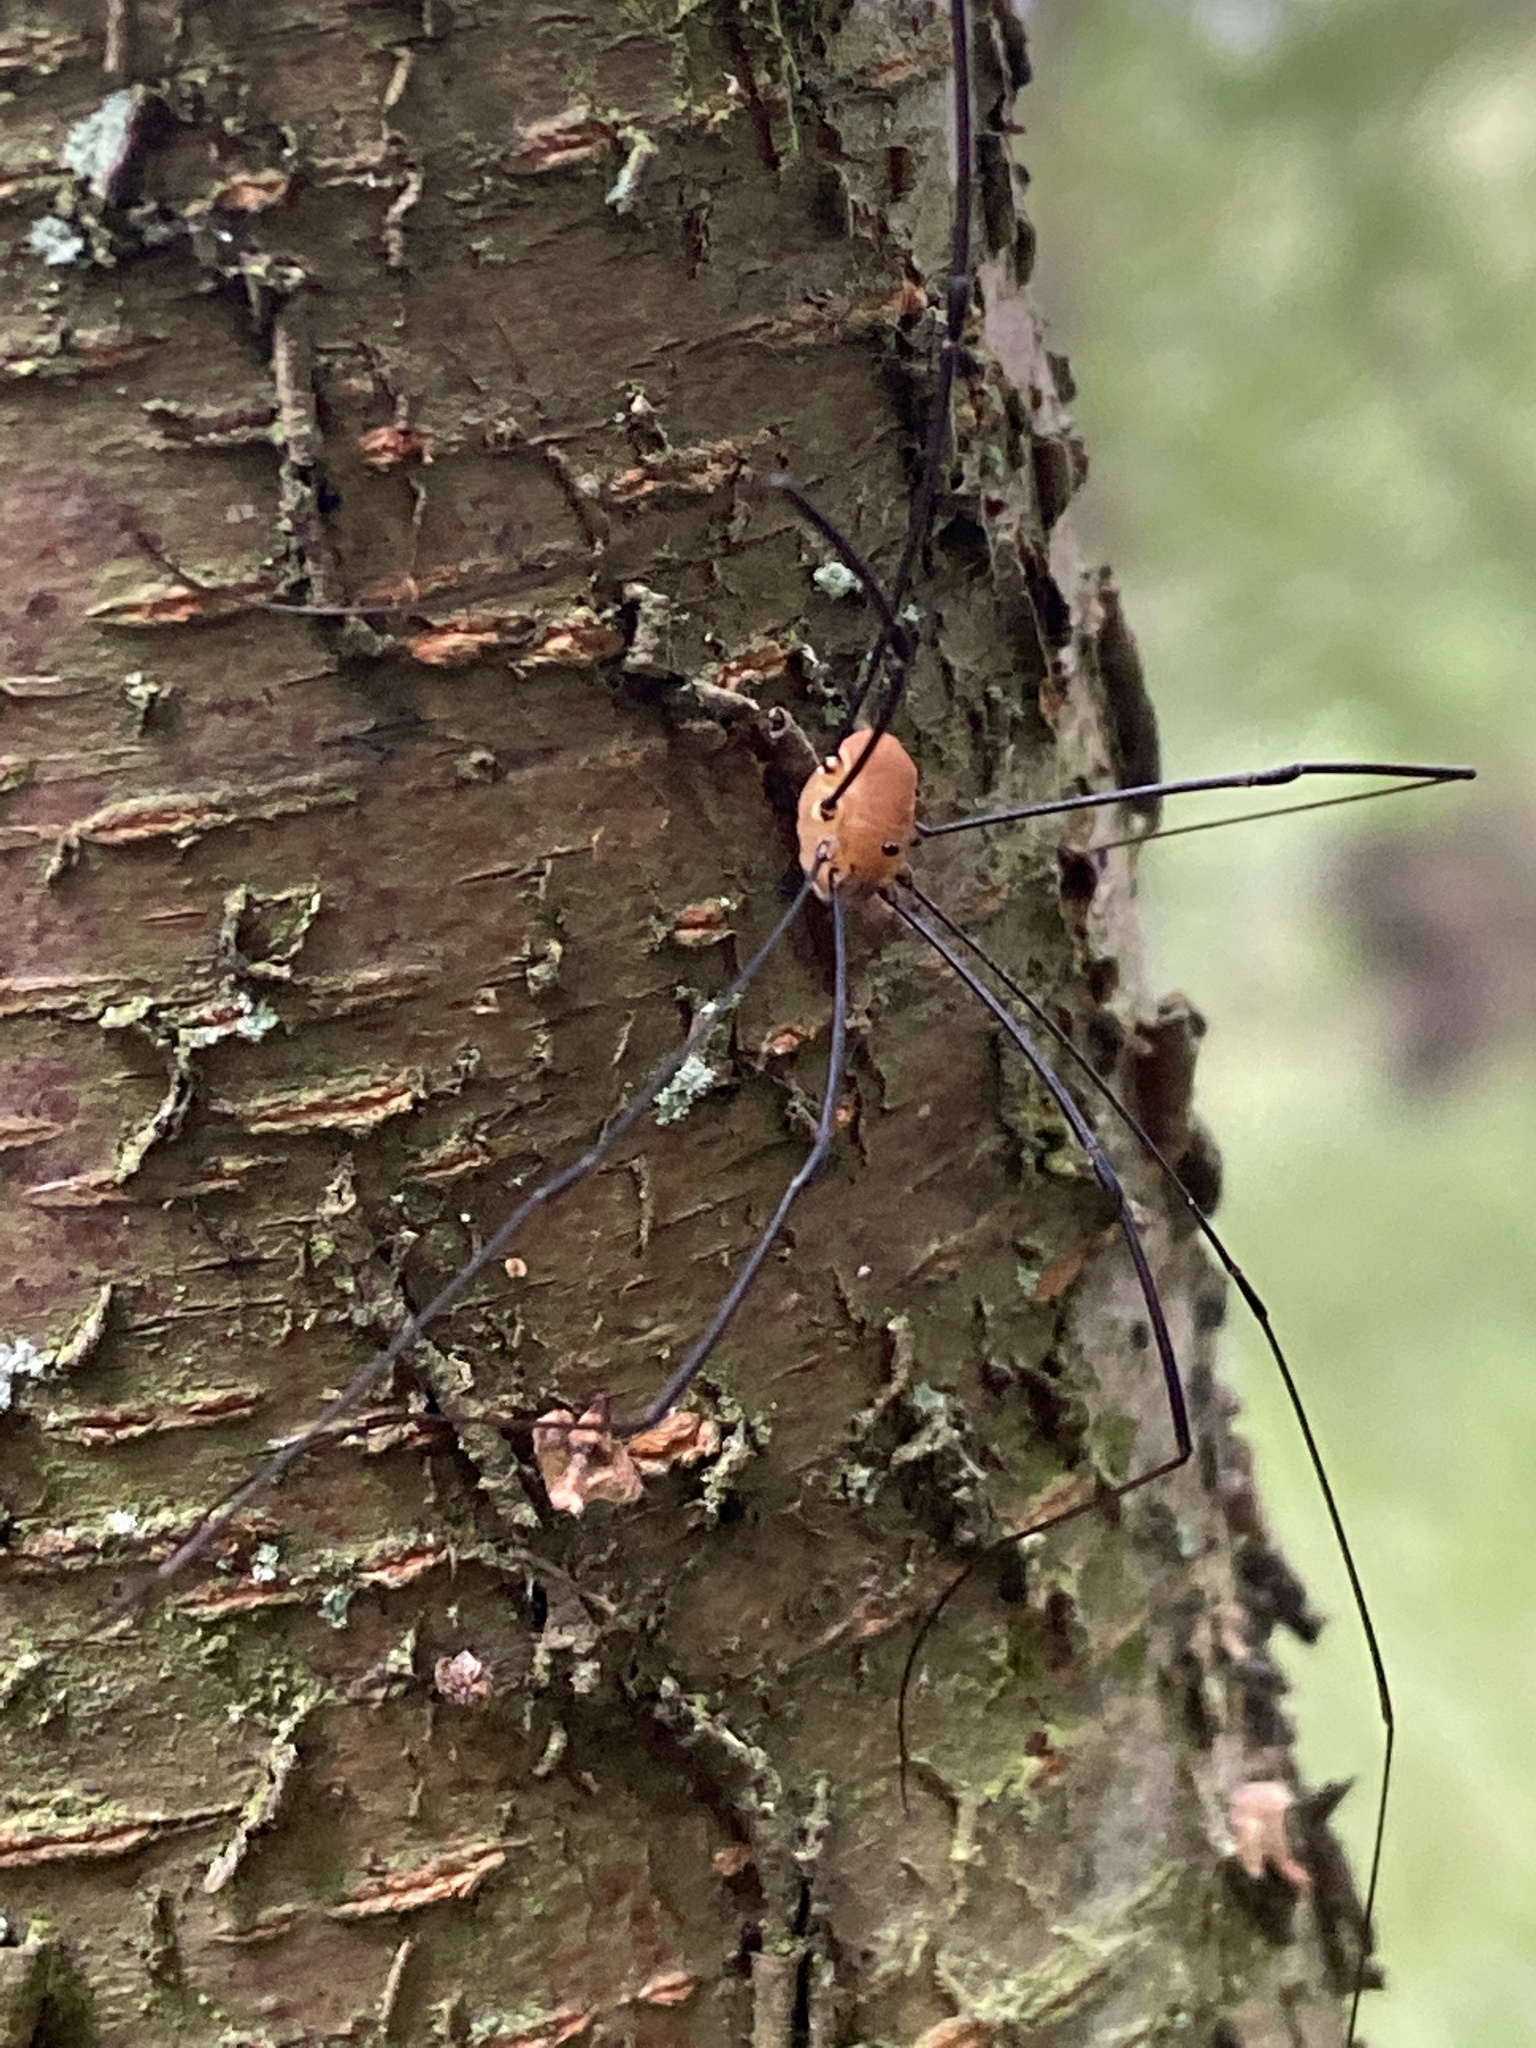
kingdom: Animalia
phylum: Arthropoda
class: Arachnida
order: Opiliones
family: Sclerosomatidae
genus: Leiobunum
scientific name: Leiobunum rotundum
